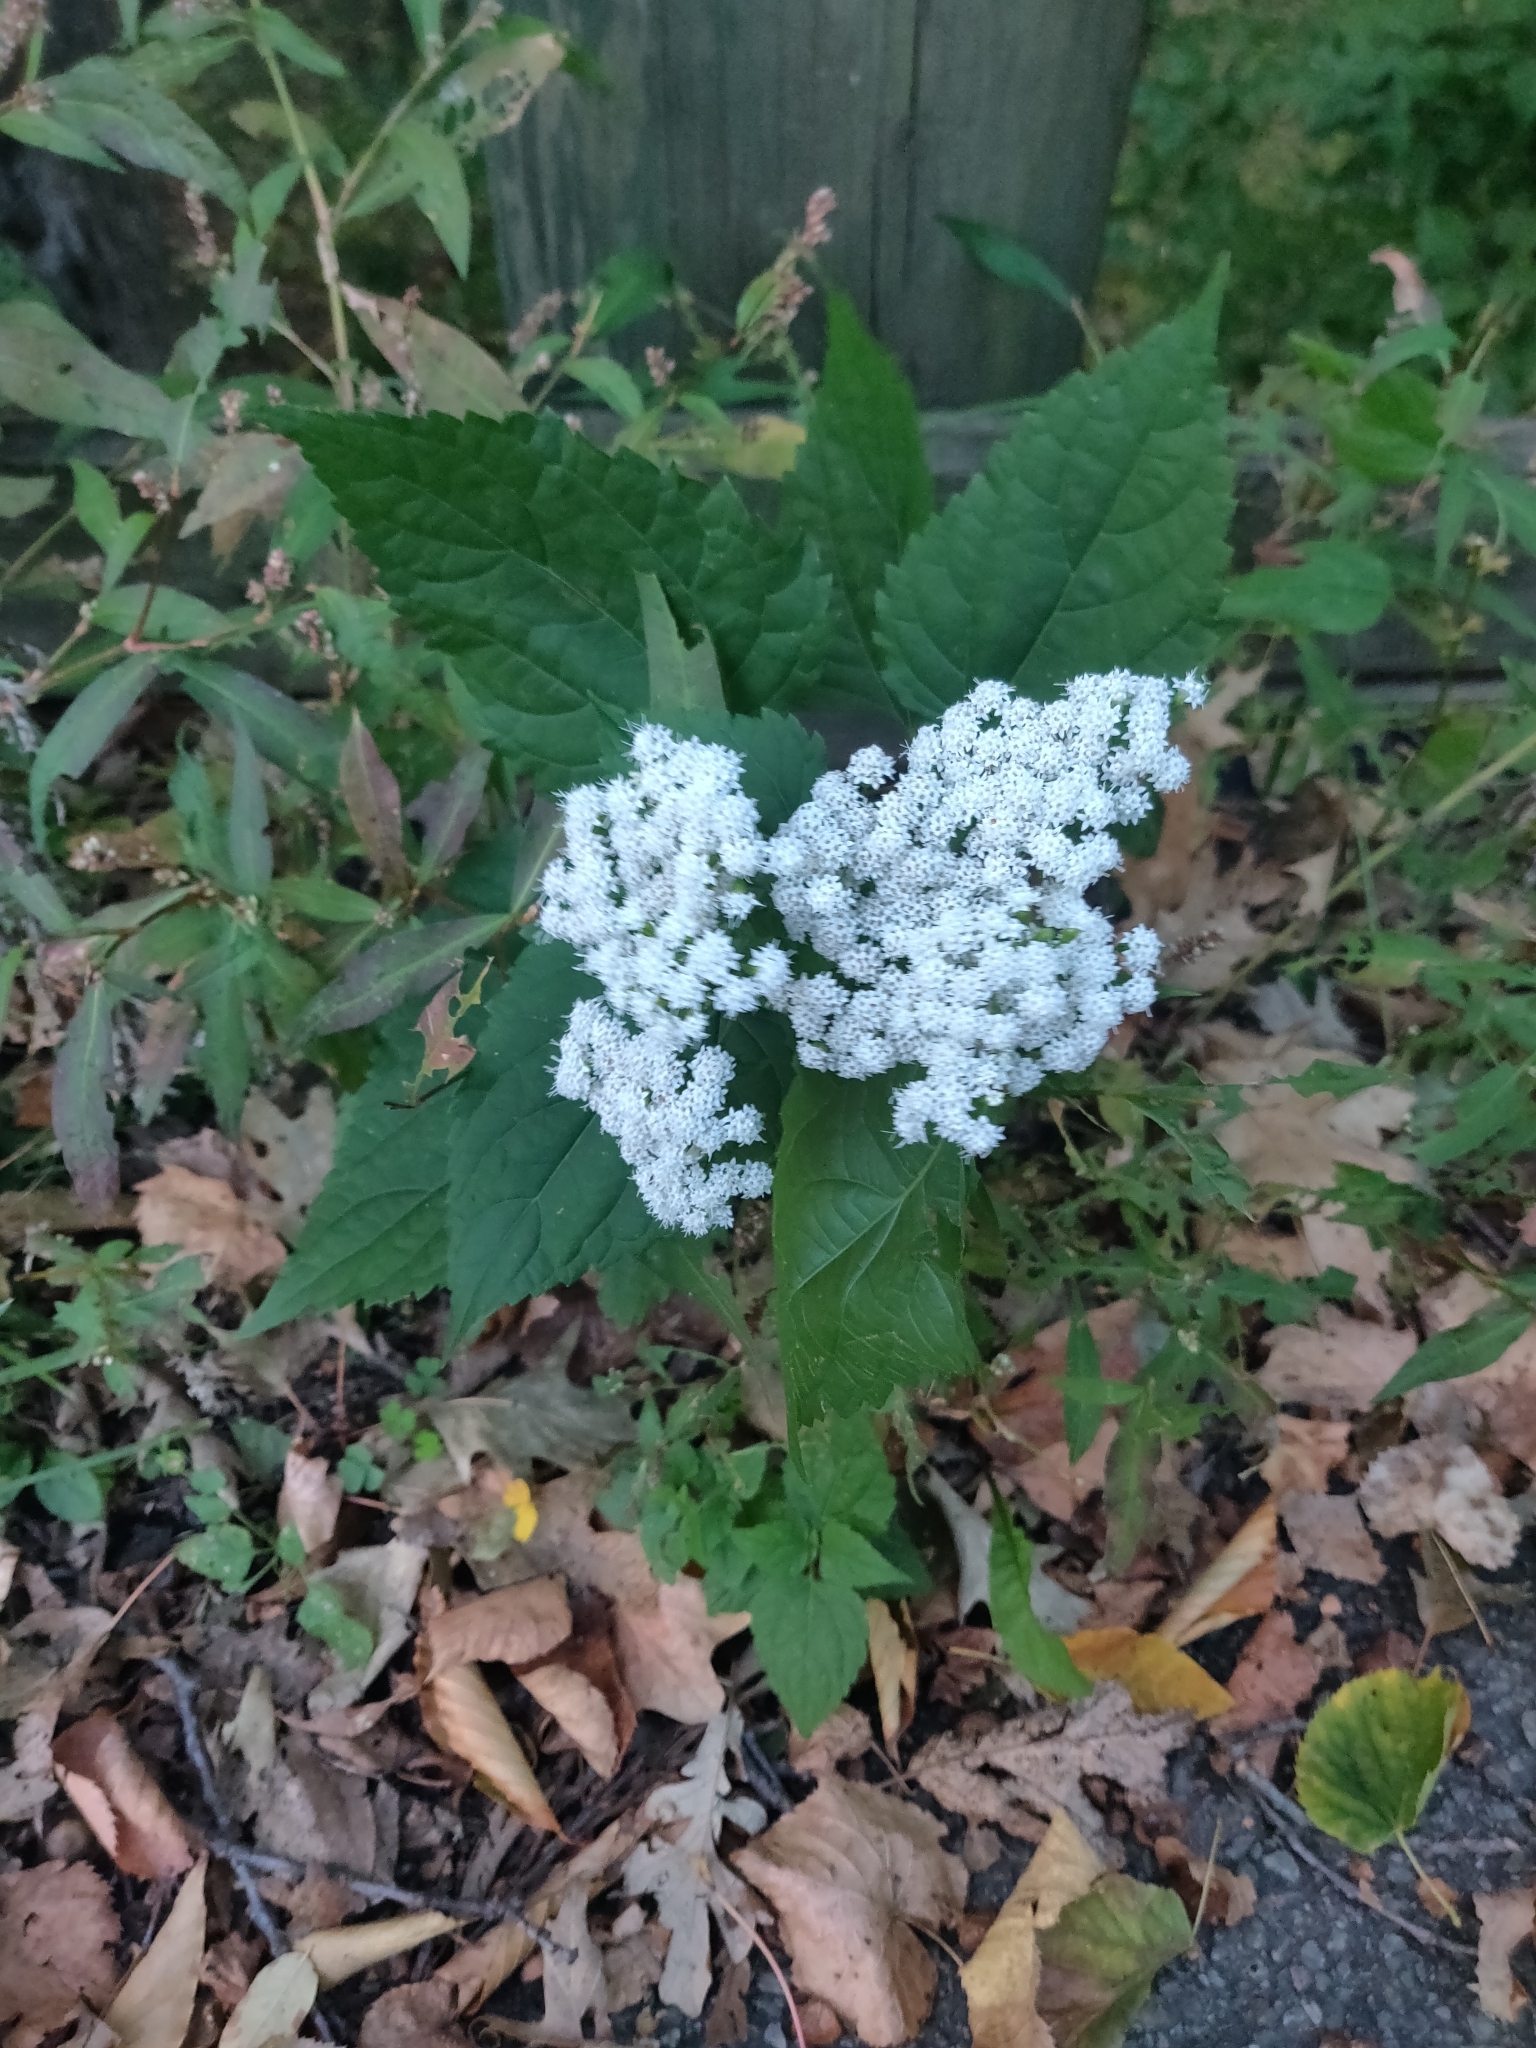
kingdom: Plantae
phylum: Tracheophyta
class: Magnoliopsida
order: Asterales
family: Asteraceae
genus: Ageratina
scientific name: Ageratina altissima
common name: White snakeroot
